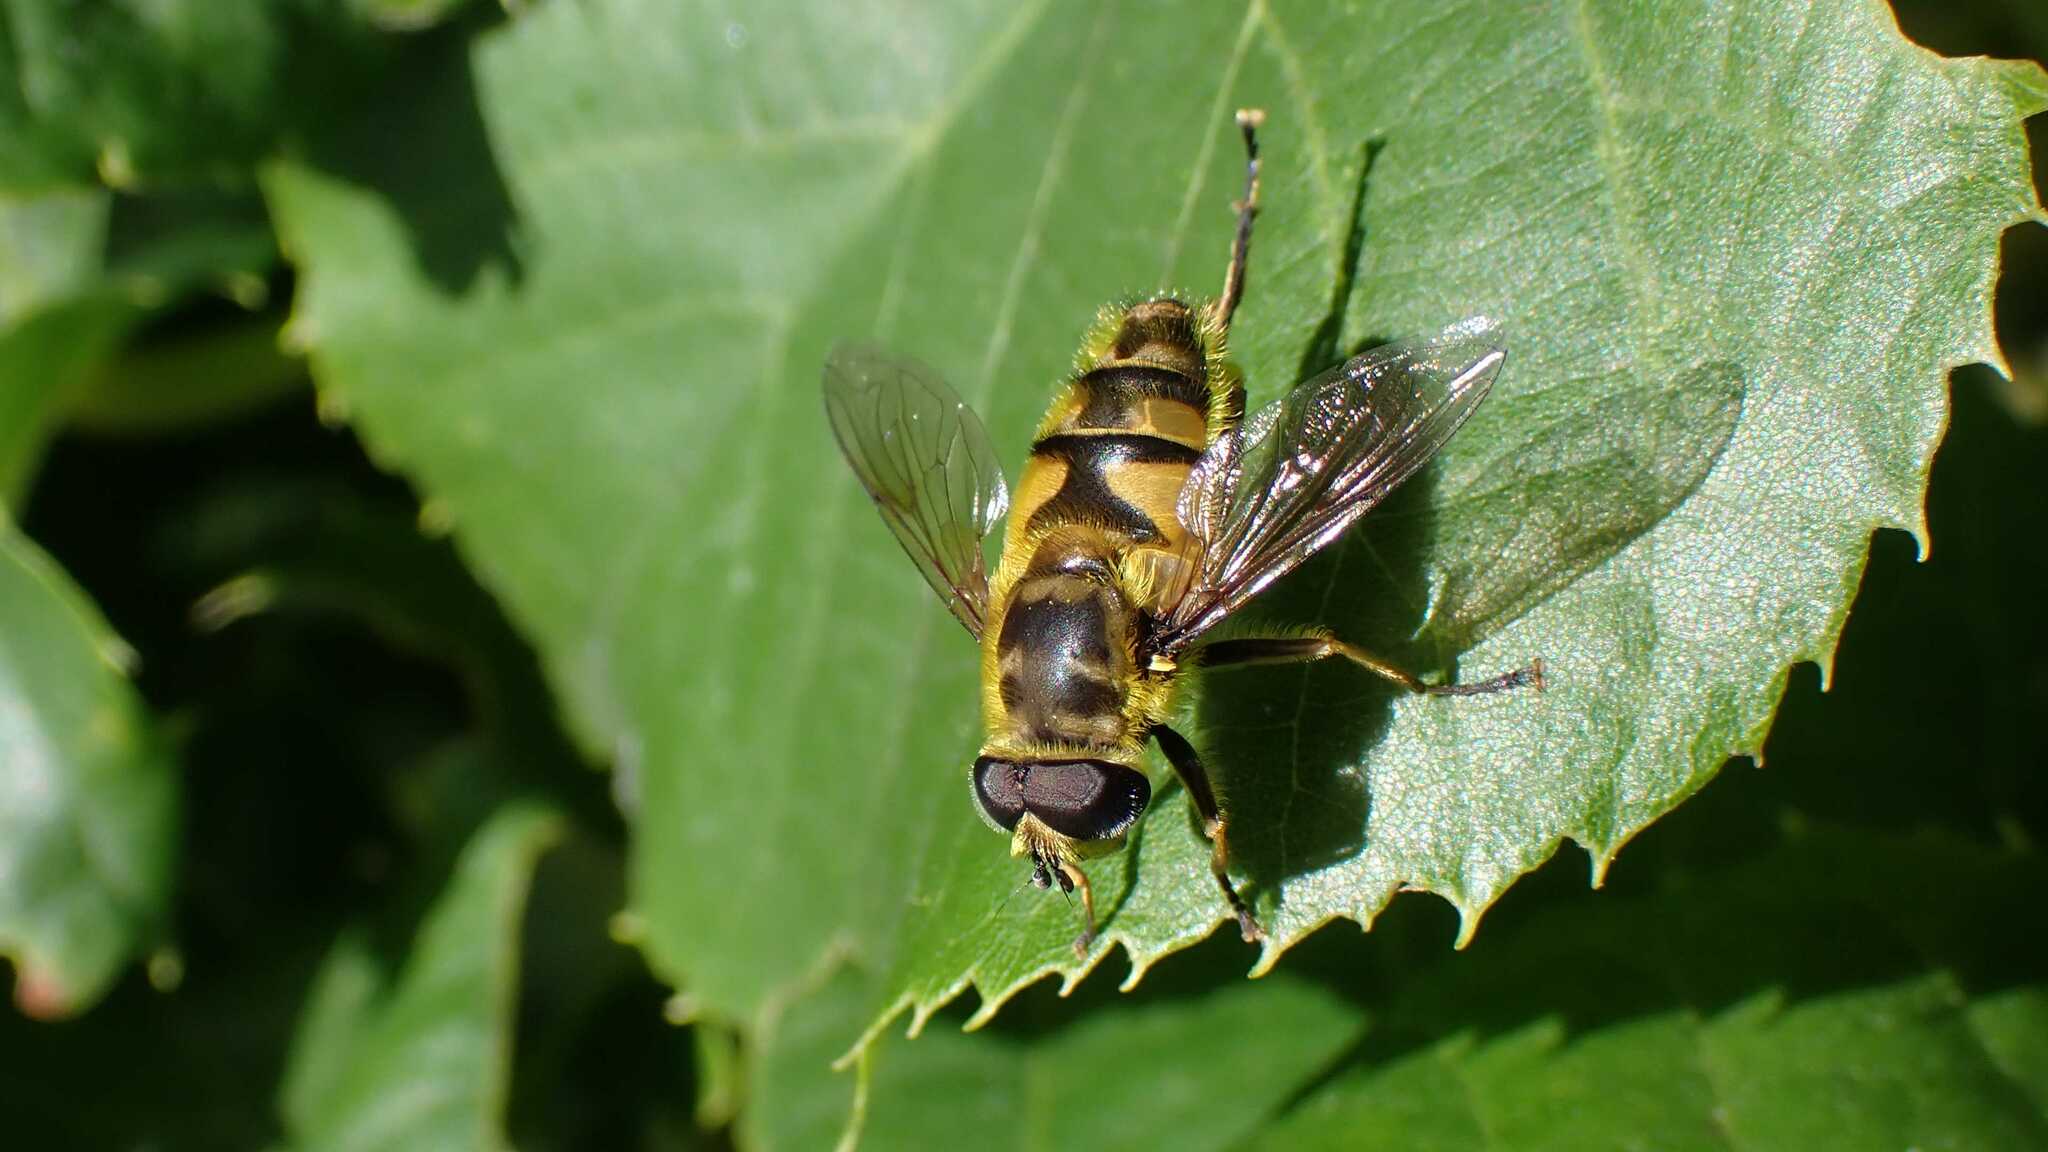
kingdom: Animalia
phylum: Arthropoda
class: Insecta
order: Diptera
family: Syrphidae
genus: Myathropa
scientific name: Myathropa florea
